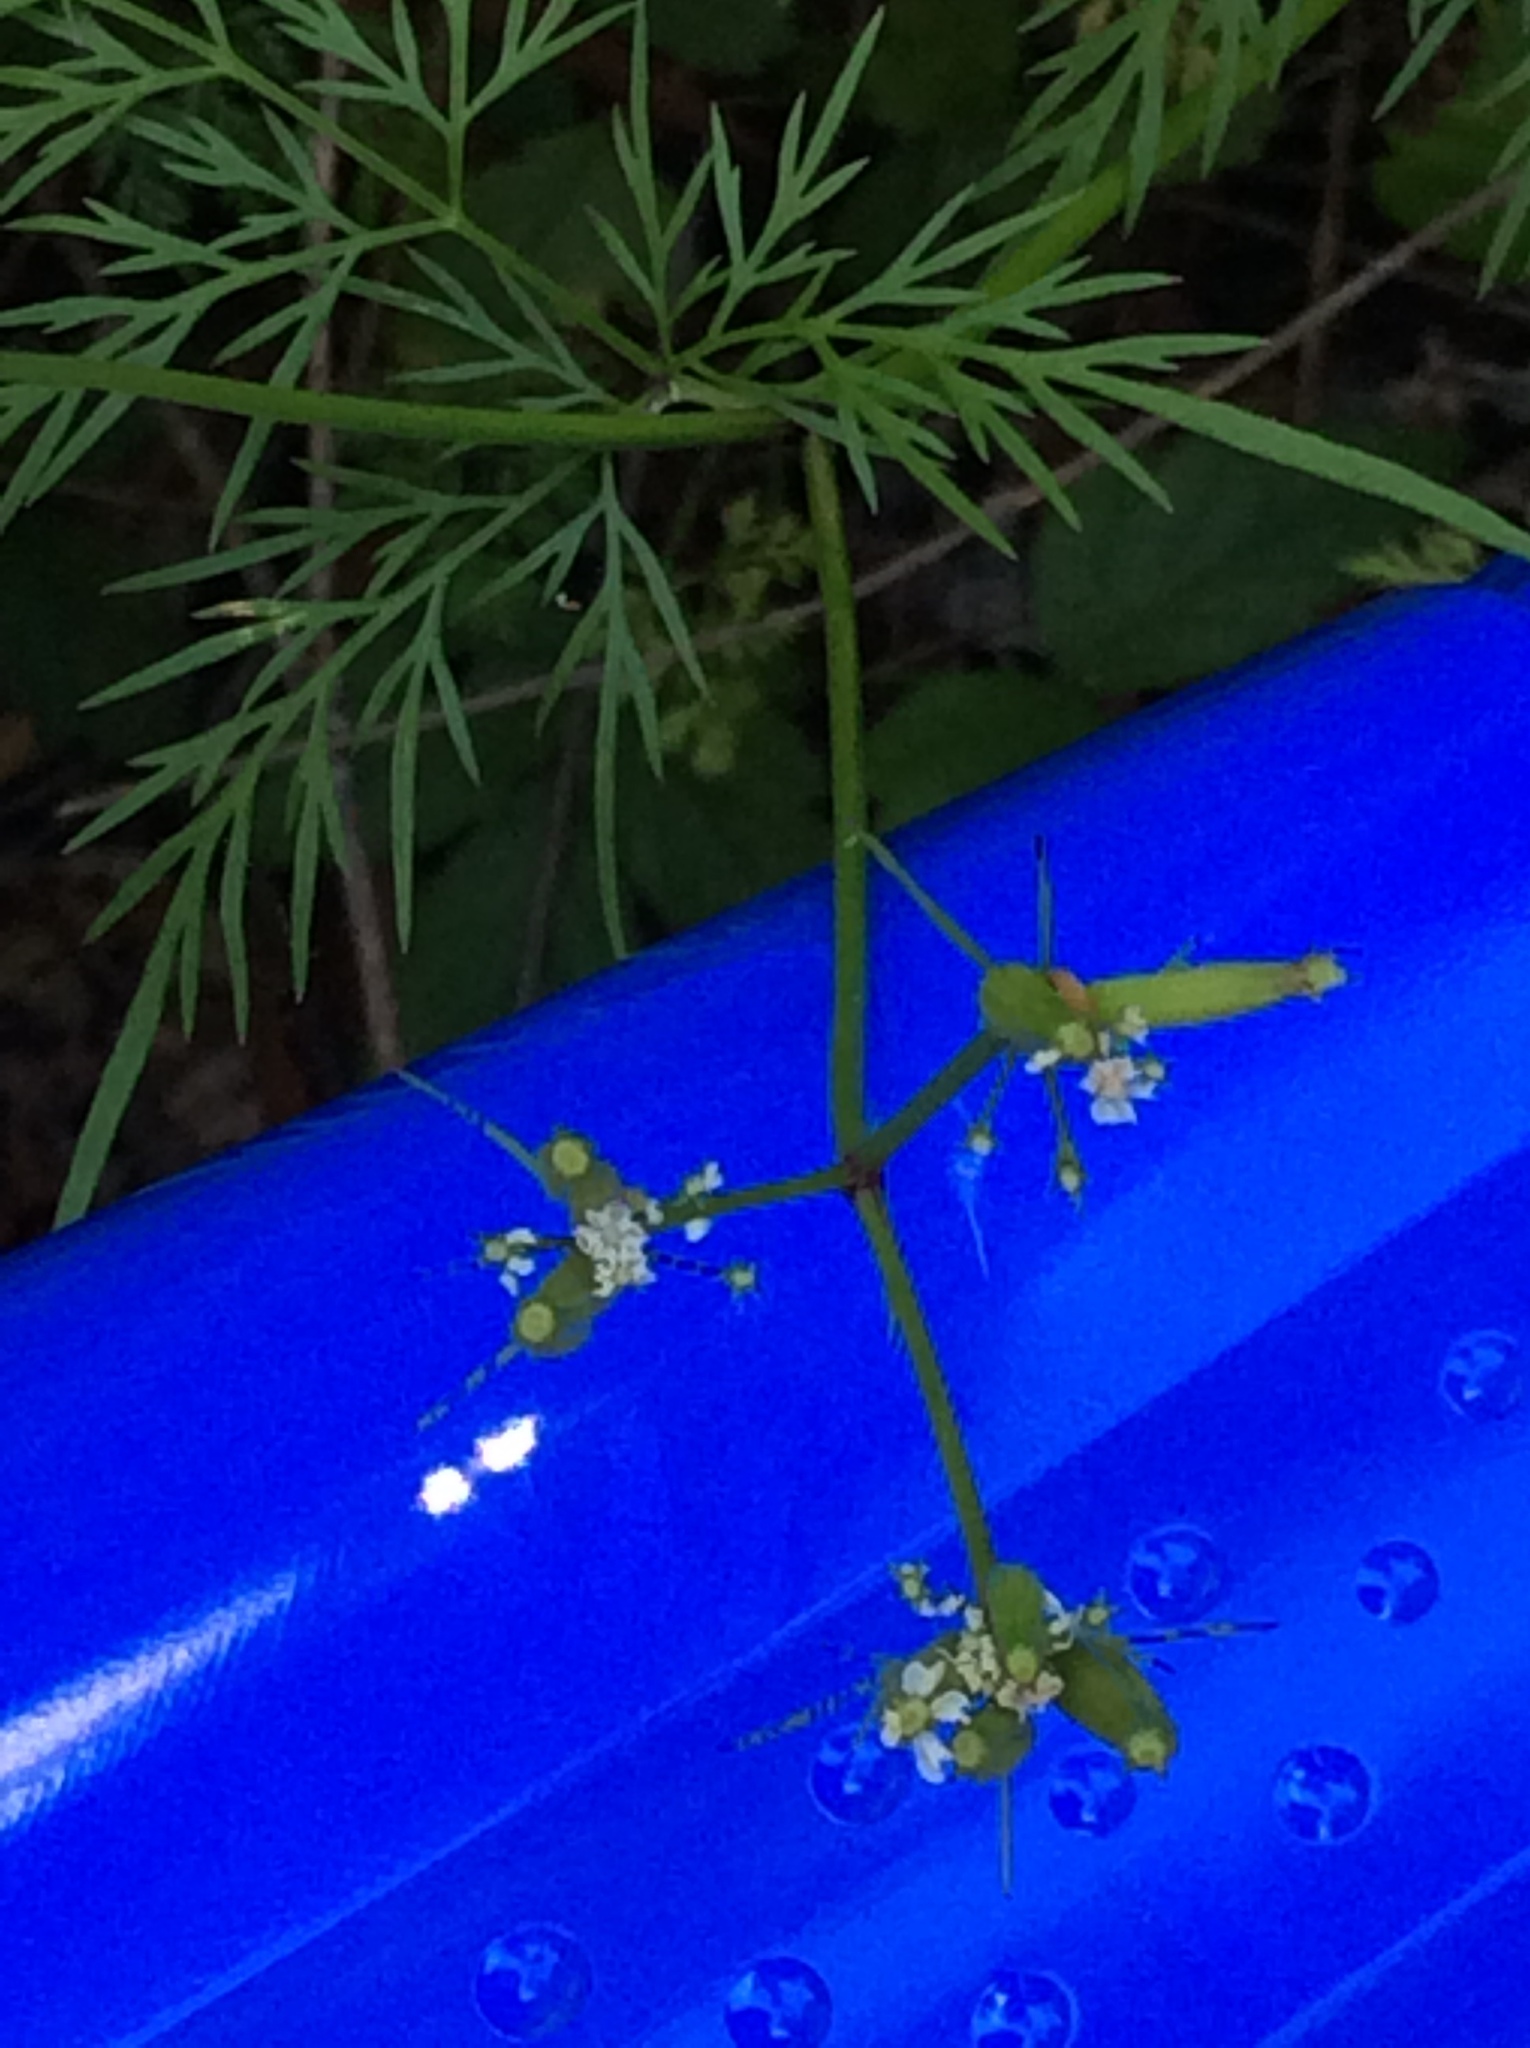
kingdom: Plantae
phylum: Tracheophyta
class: Magnoliopsida
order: Apiales
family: Apiaceae
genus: Trepocarpus
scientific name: Trepocarpus aethusae
